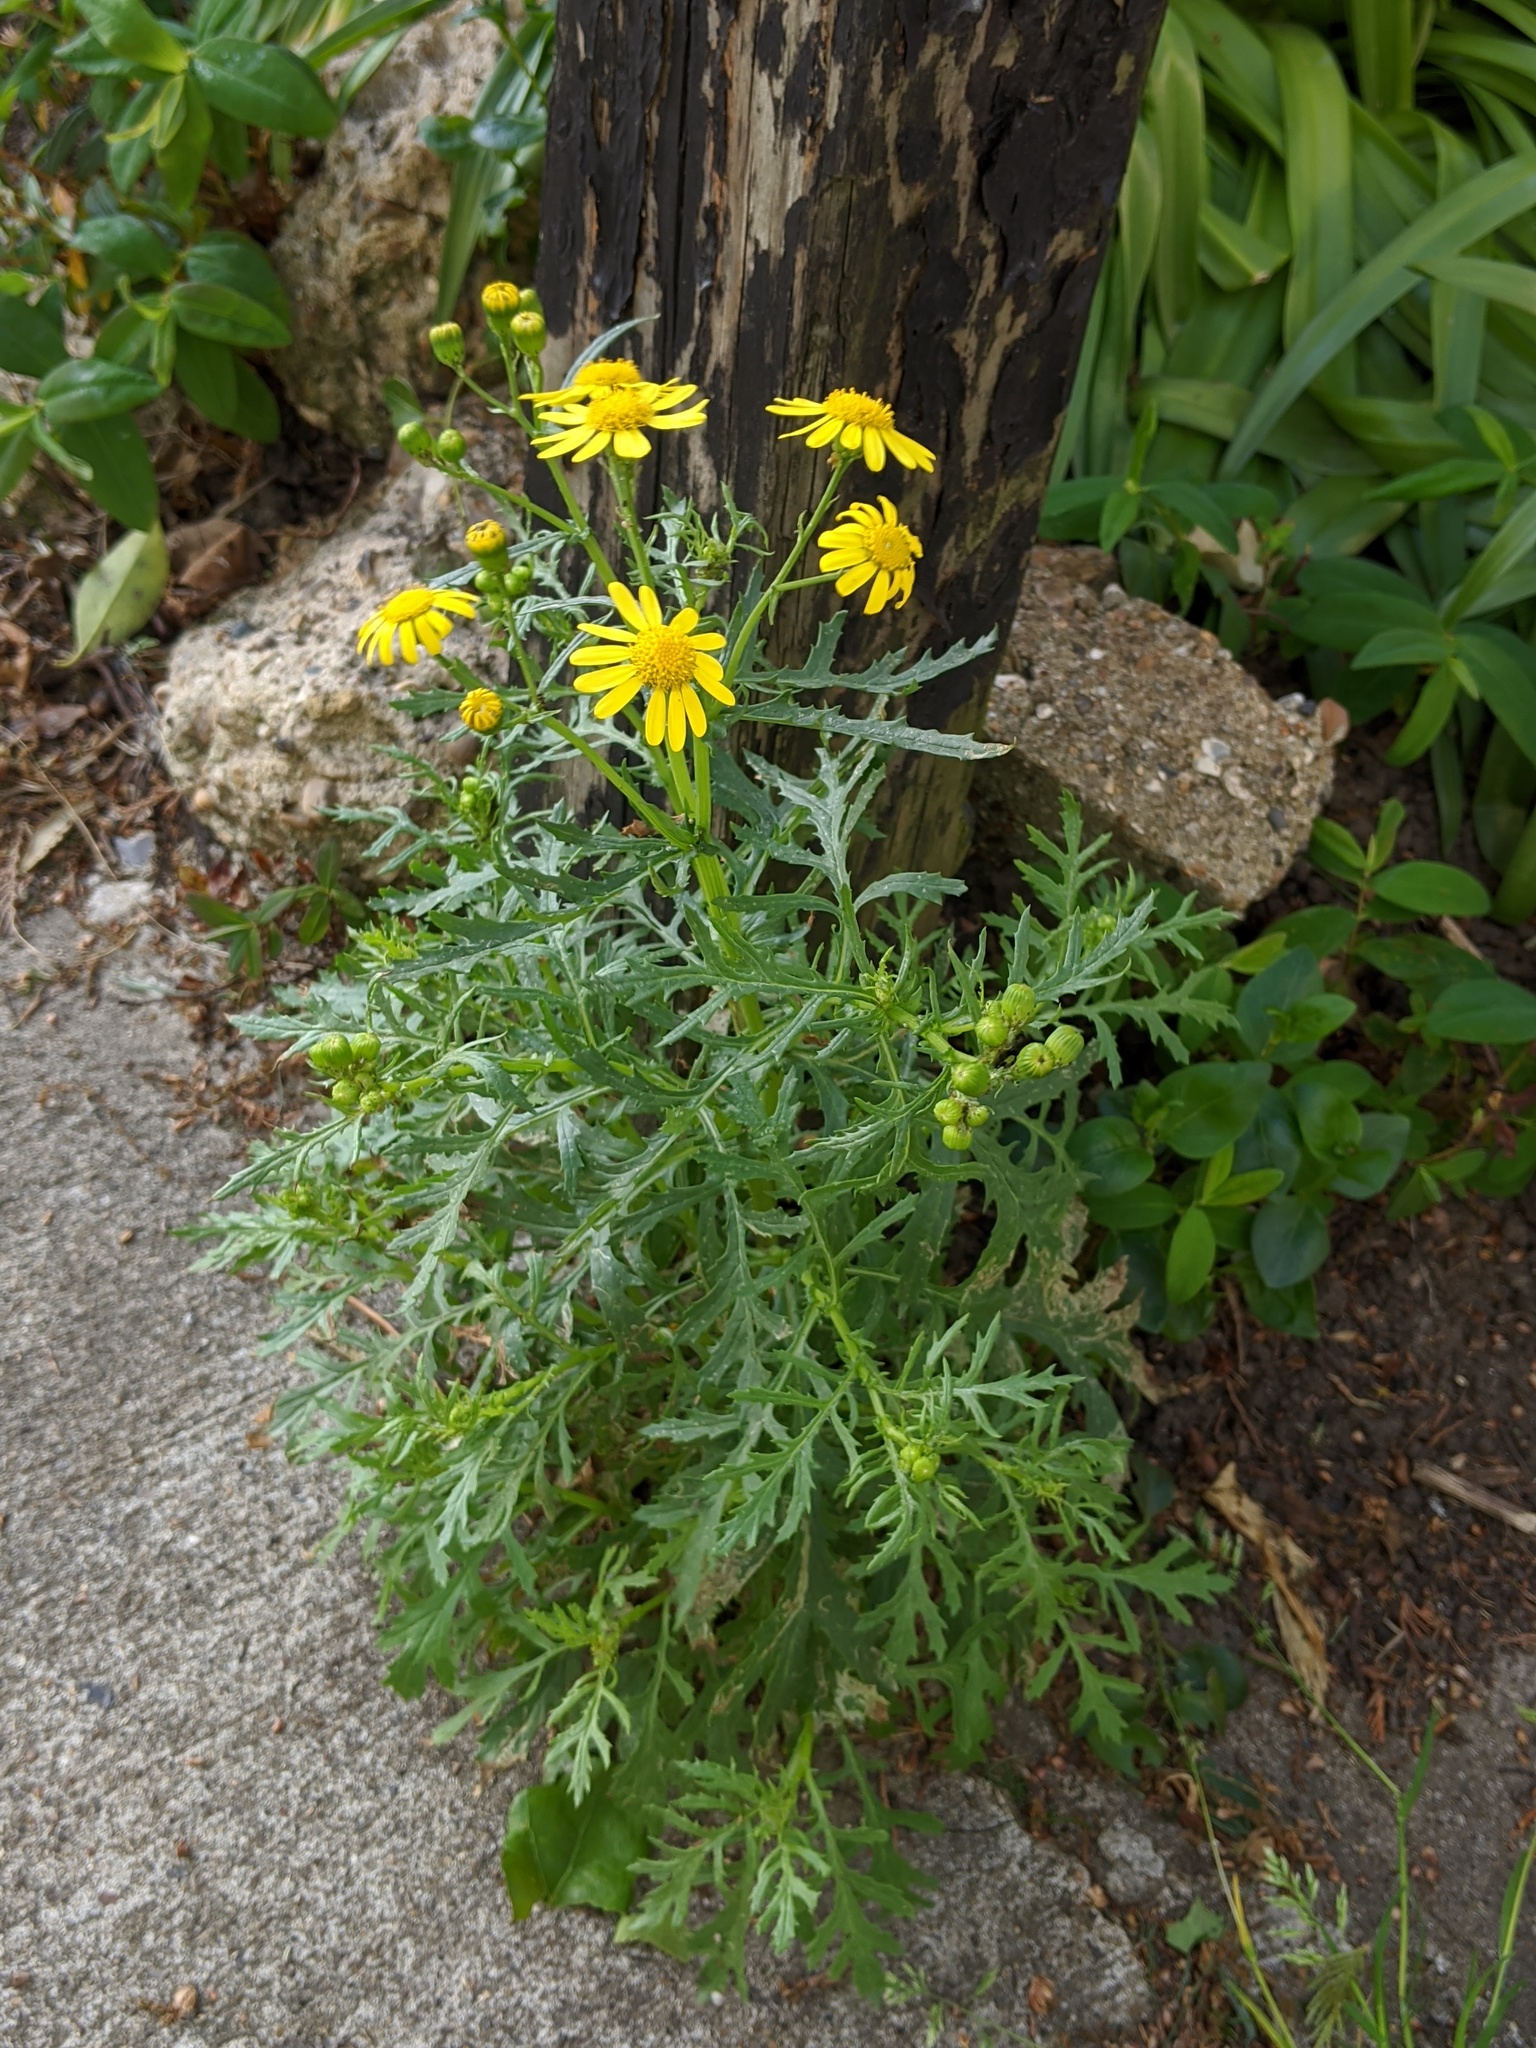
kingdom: Plantae
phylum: Tracheophyta
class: Magnoliopsida
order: Asterales
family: Asteraceae
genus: Senecio
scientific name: Senecio squalidus
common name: Oxford ragwort
